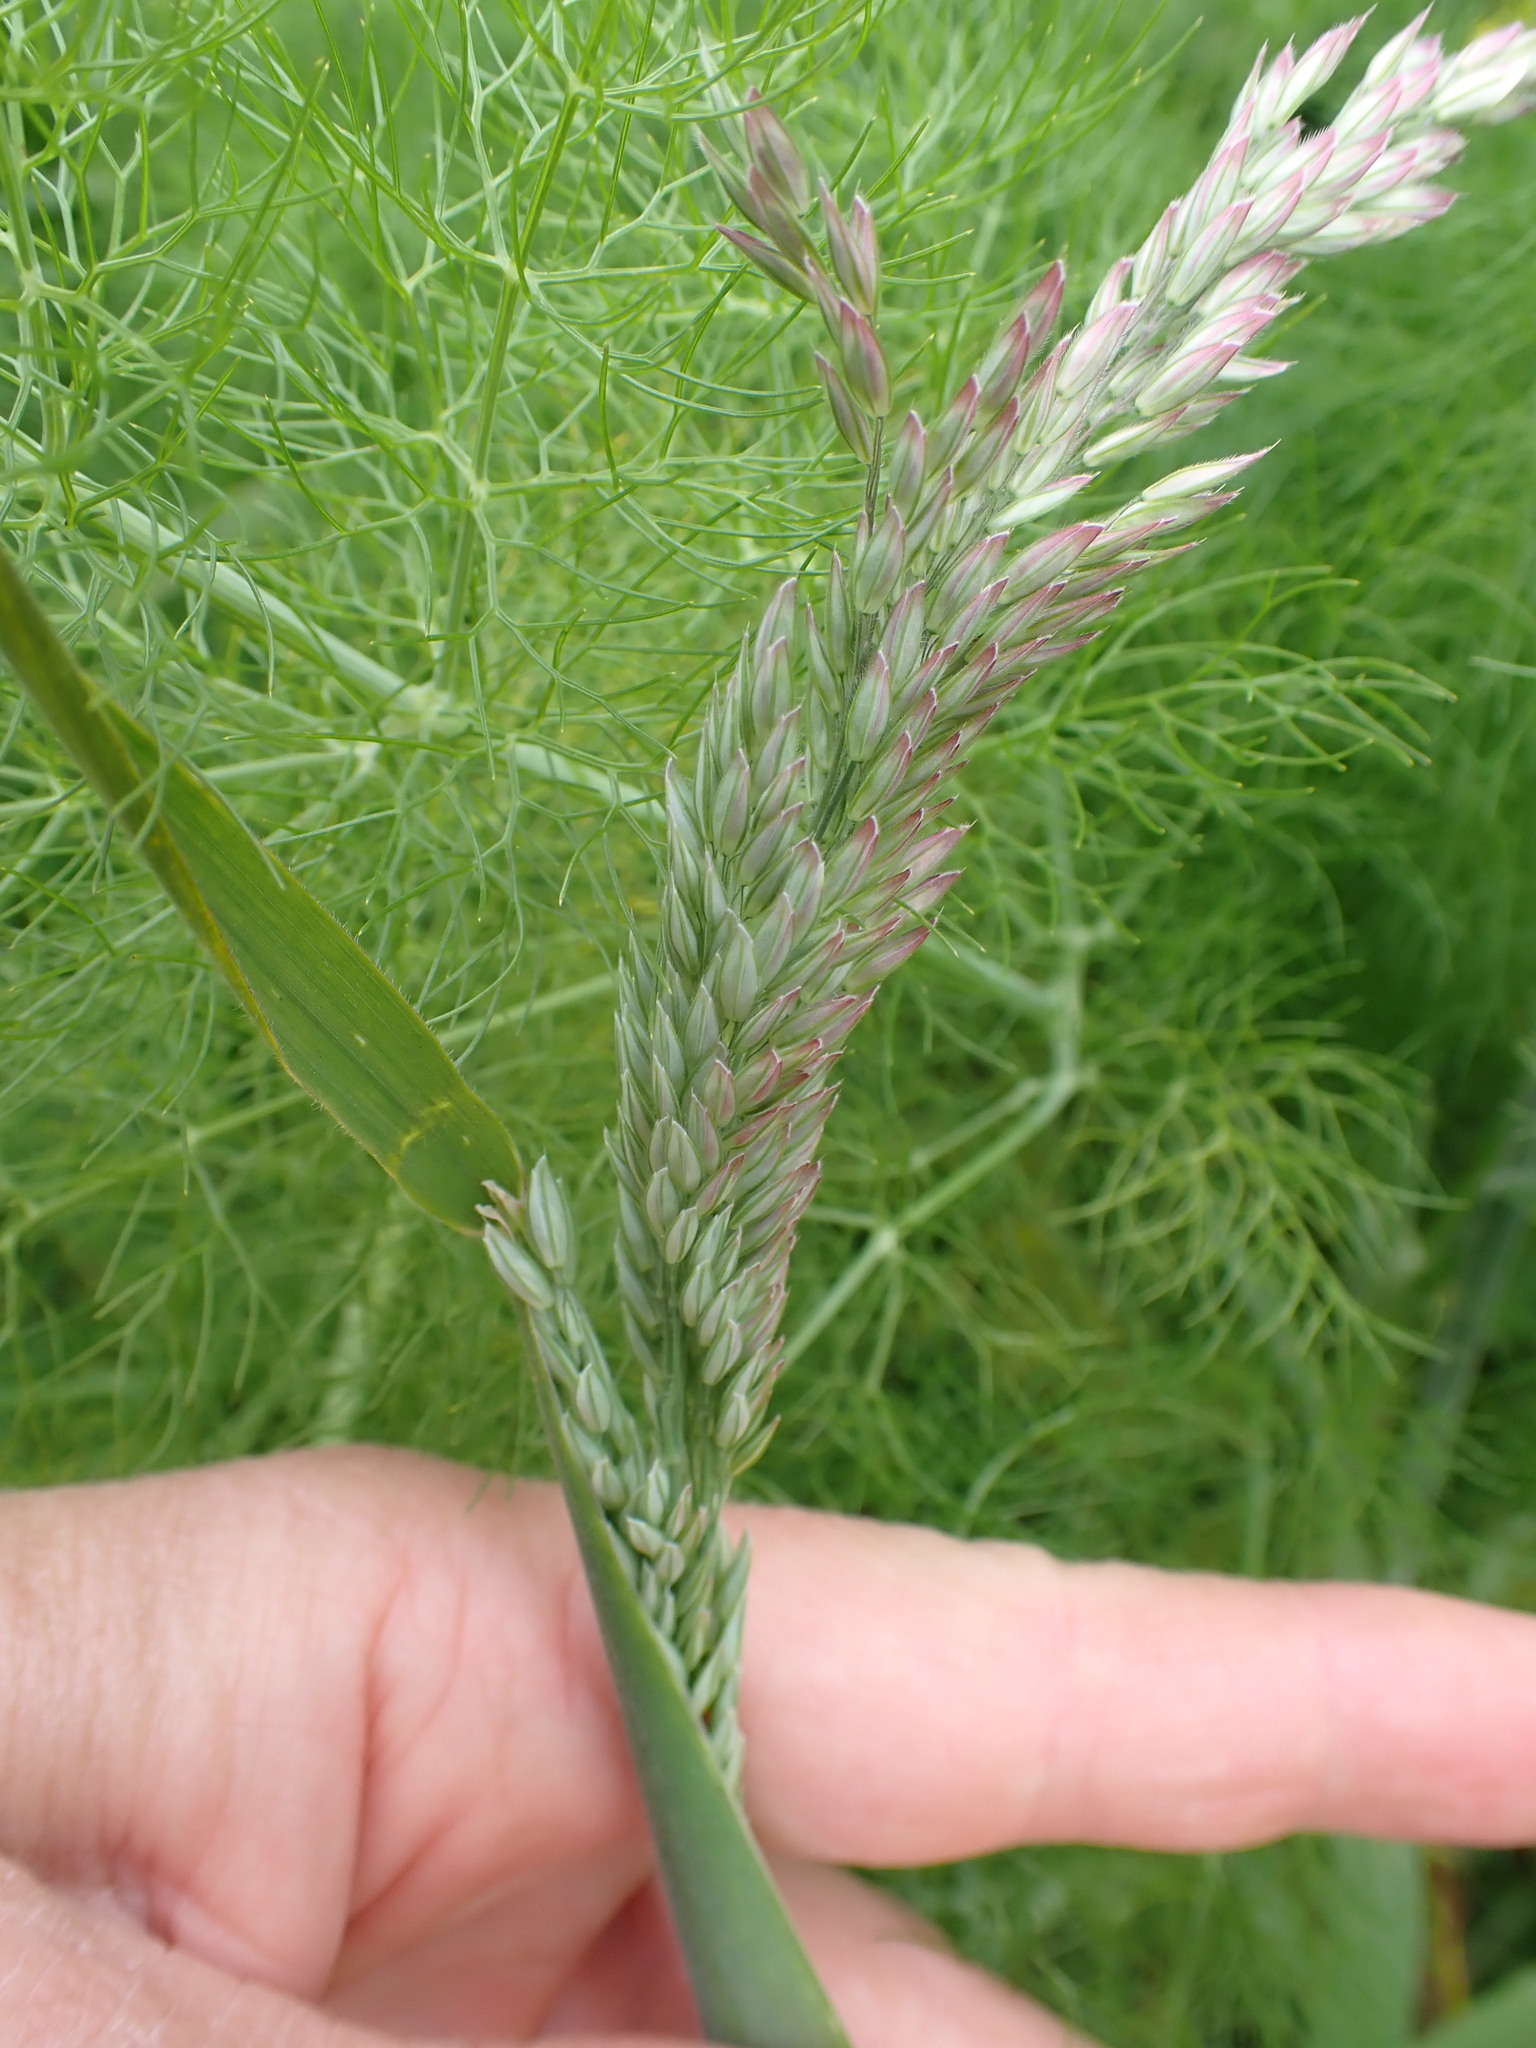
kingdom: Plantae
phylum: Tracheophyta
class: Liliopsida
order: Poales
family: Poaceae
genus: Holcus
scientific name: Holcus lanatus
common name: Yorkshire-fog
